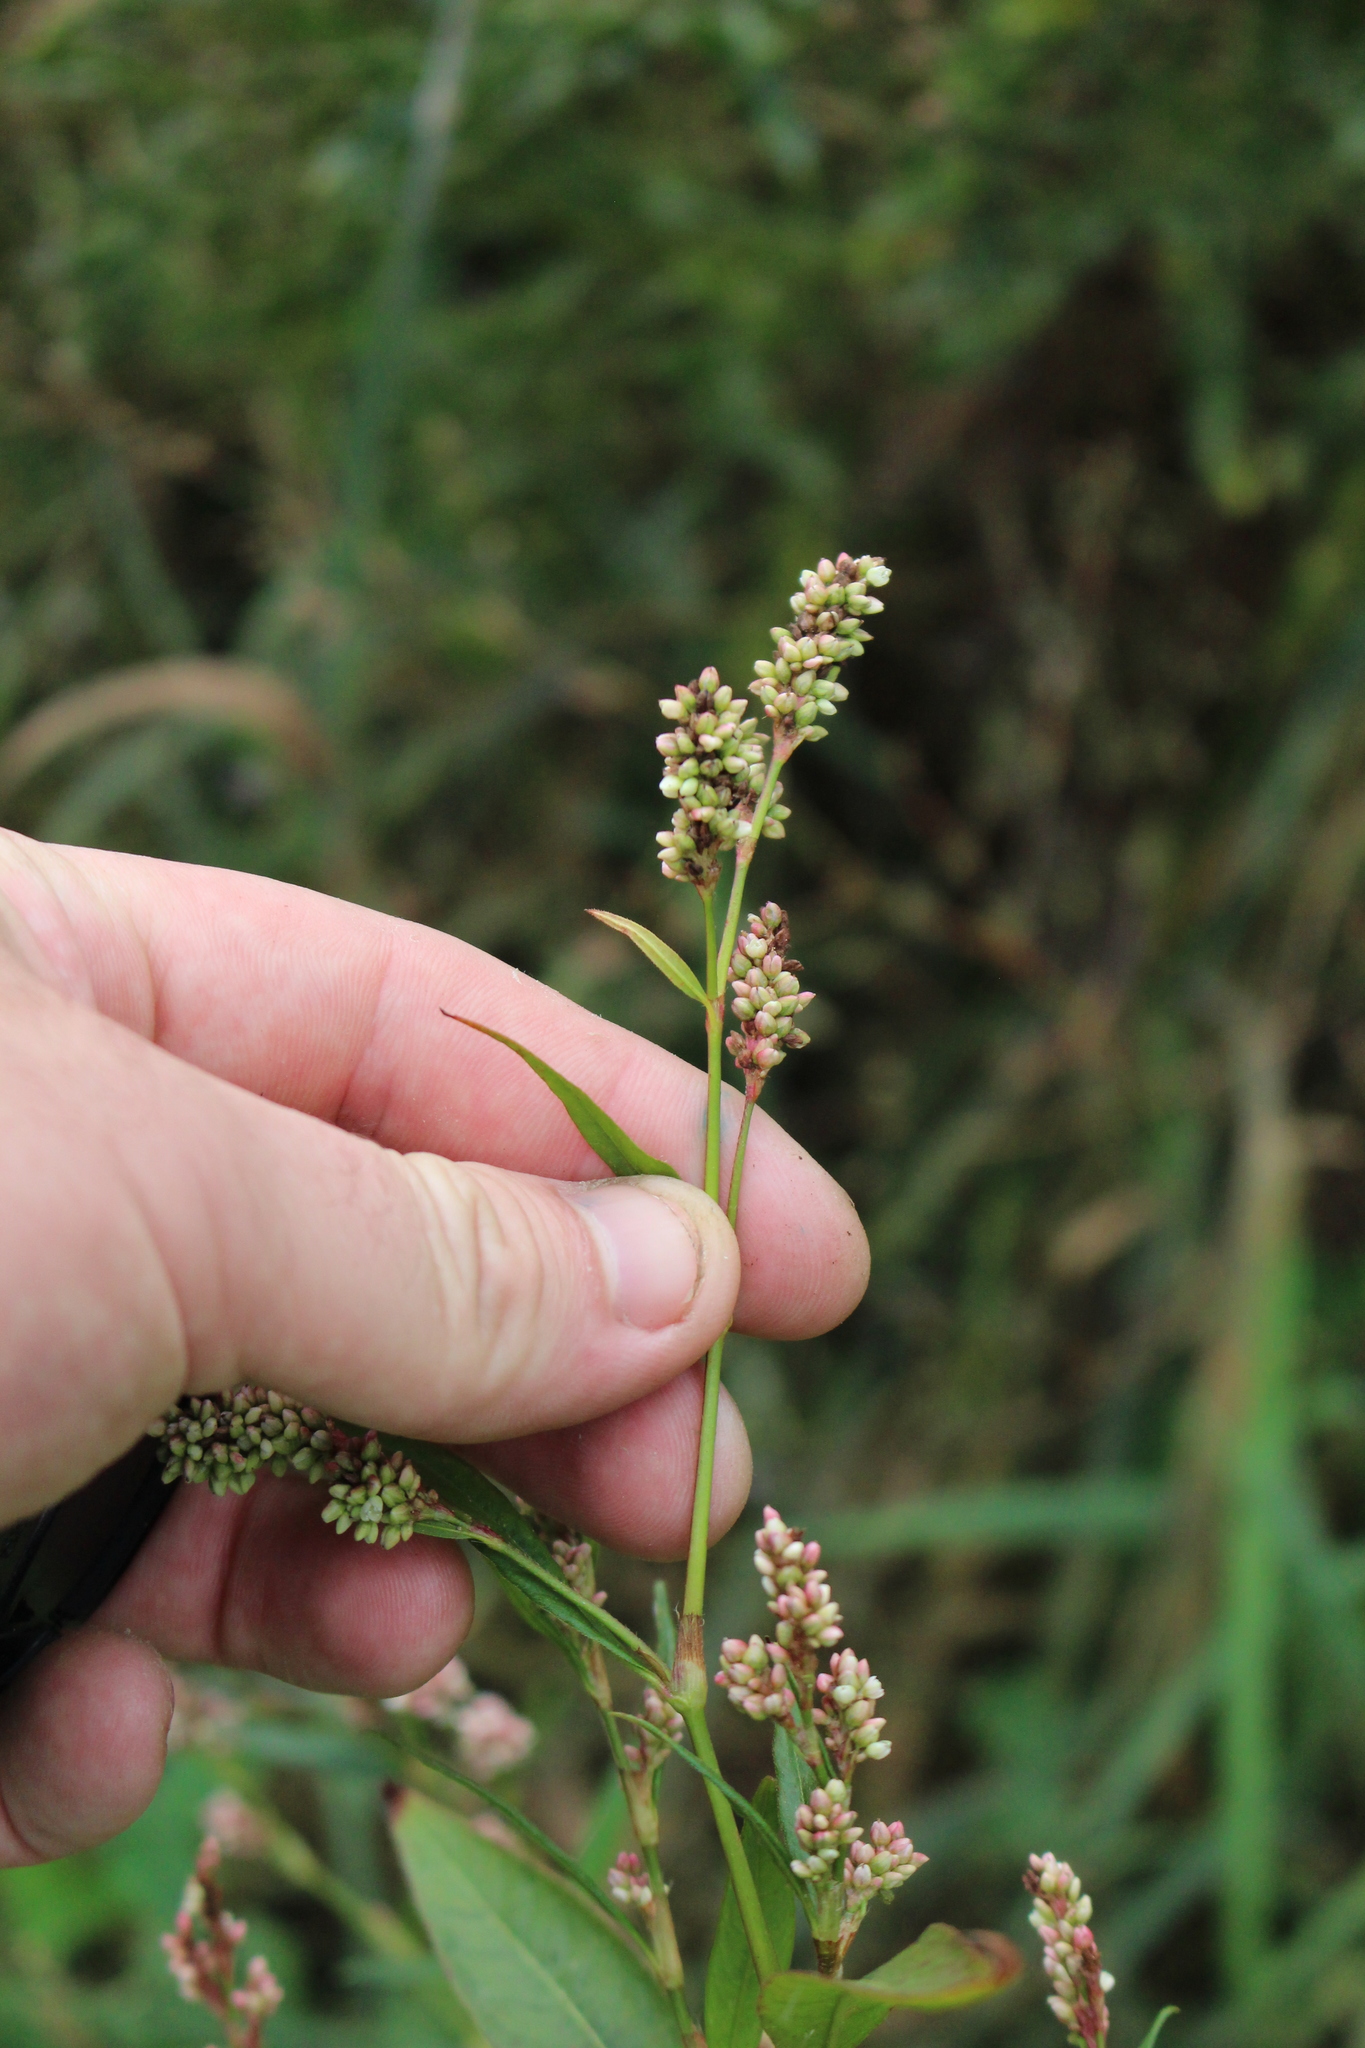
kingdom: Plantae
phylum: Tracheophyta
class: Magnoliopsida
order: Caryophyllales
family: Polygonaceae
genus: Persicaria
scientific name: Persicaria maculosa
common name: Redshank
